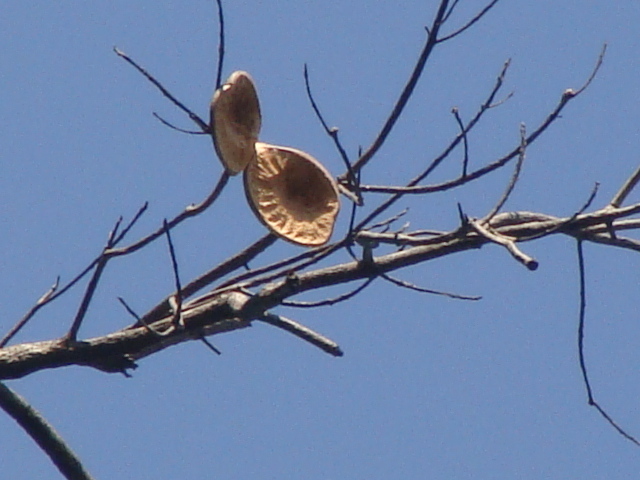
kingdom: Plantae
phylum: Tracheophyta
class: Magnoliopsida
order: Gentianales
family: Apocynaceae
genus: Aspidosperma
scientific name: Aspidosperma cruentum
